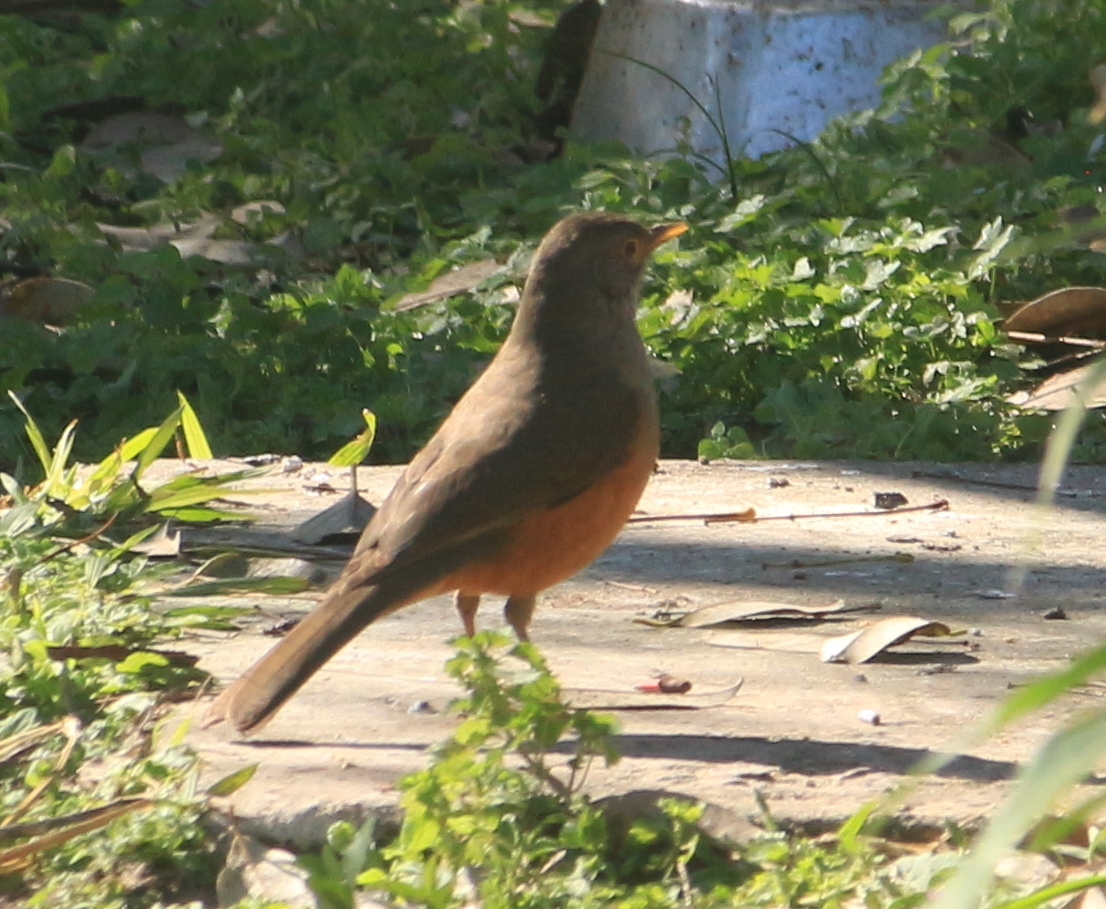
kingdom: Animalia
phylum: Chordata
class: Aves
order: Passeriformes
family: Turdidae
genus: Turdus
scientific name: Turdus rufiventris
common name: Rufous-bellied thrush
